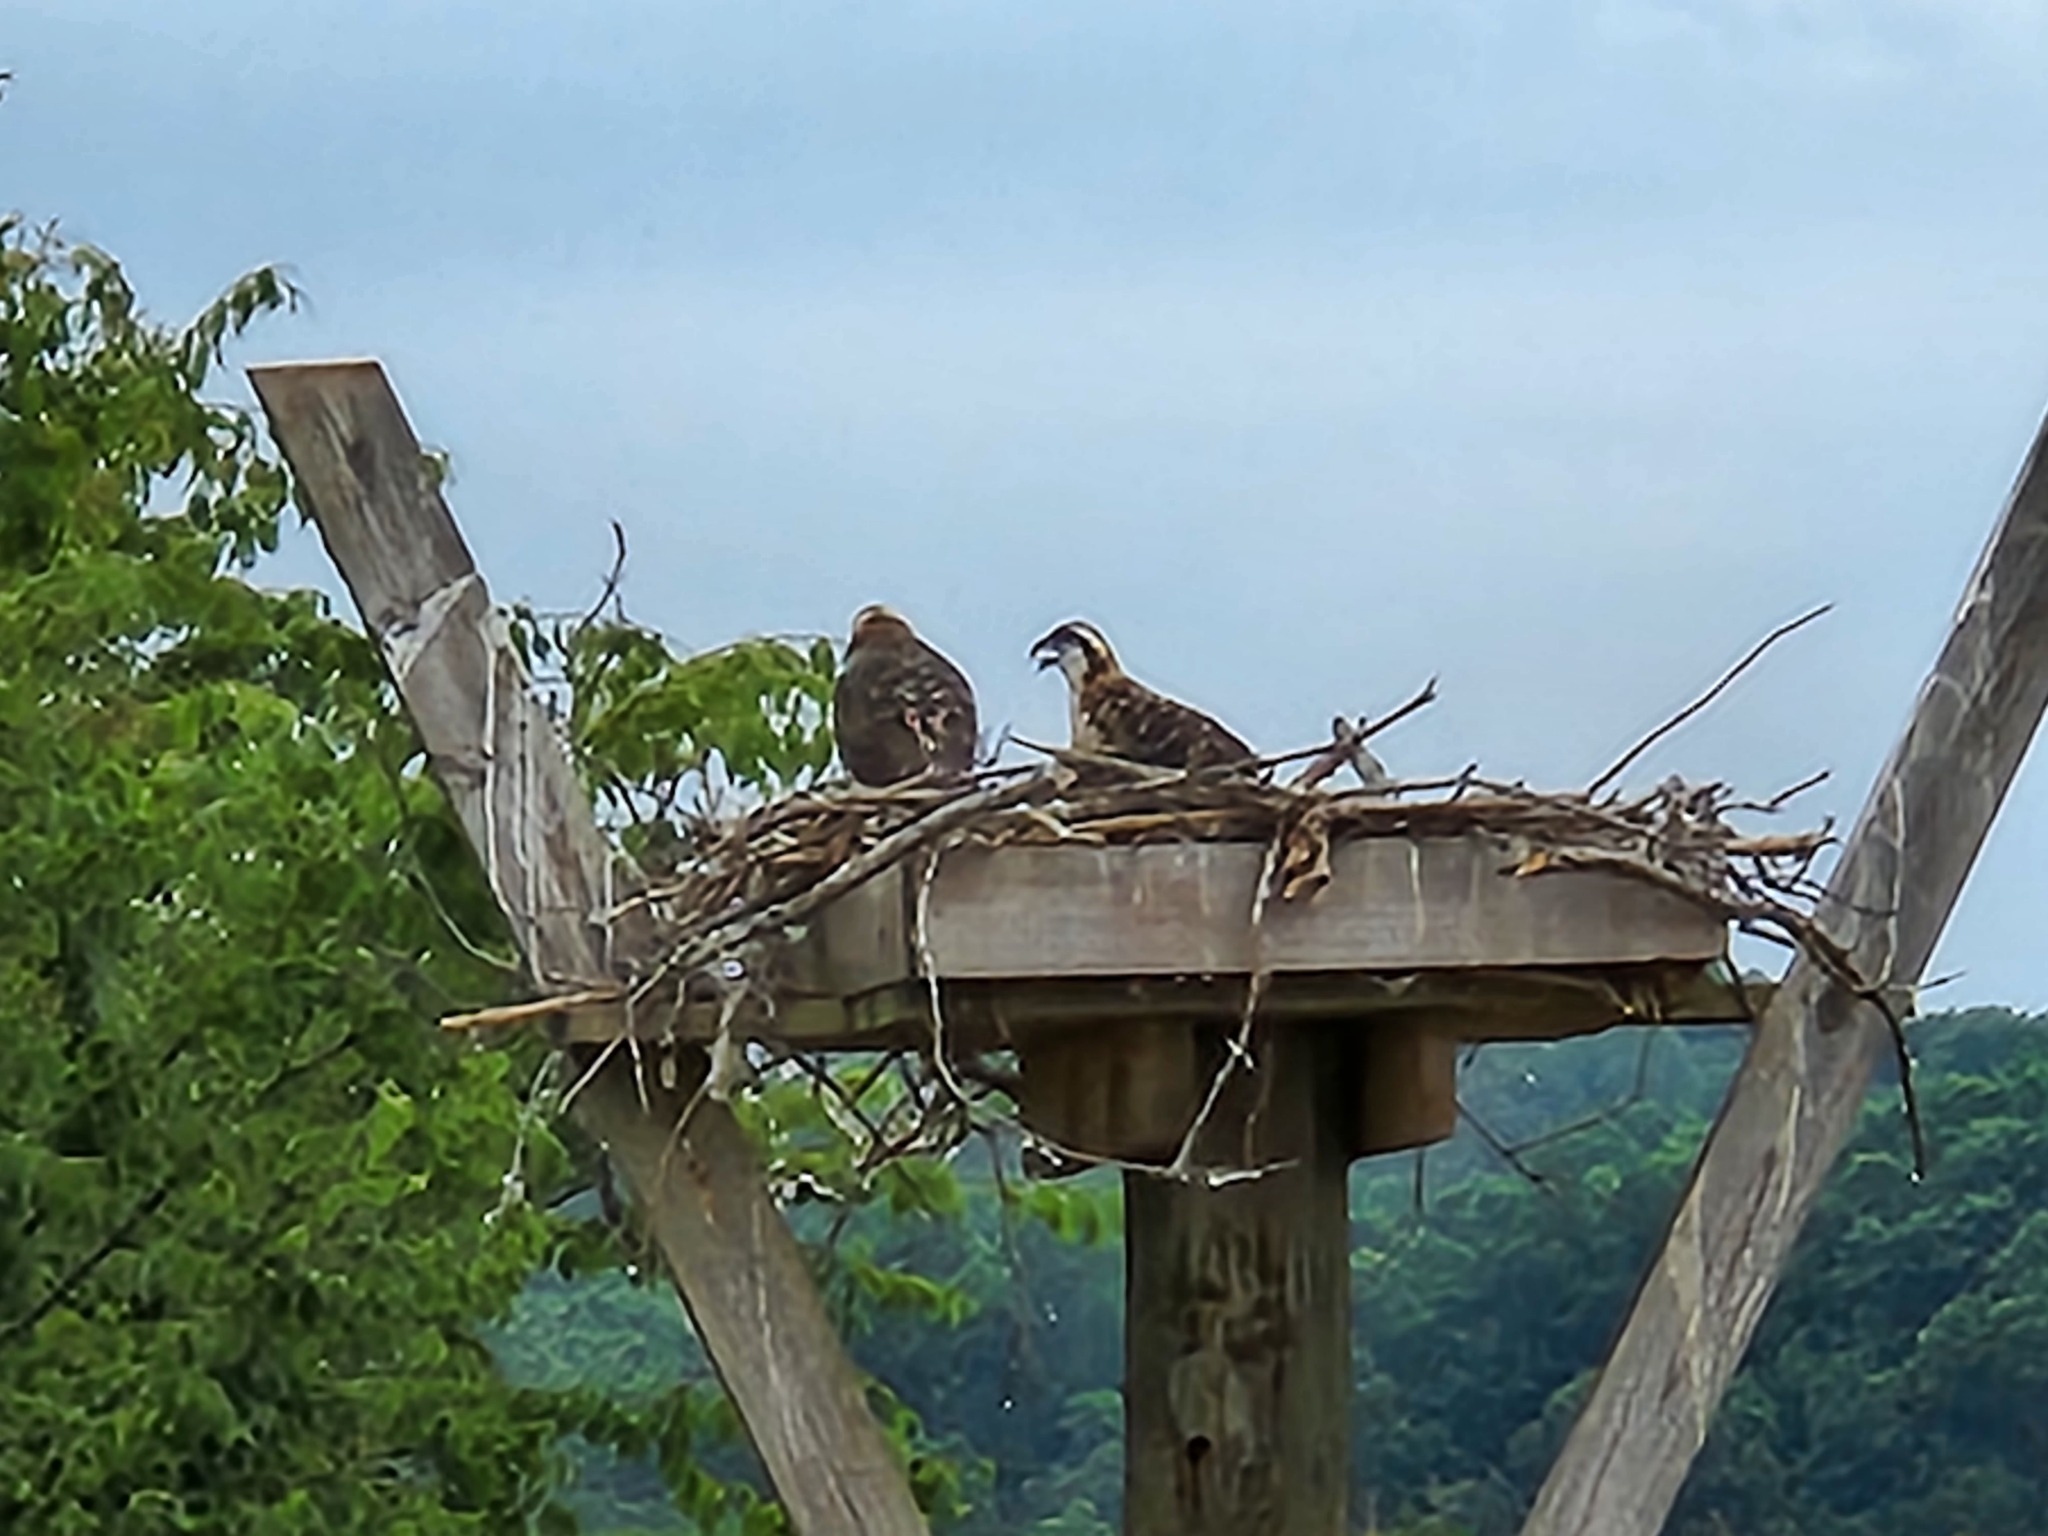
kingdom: Animalia
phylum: Chordata
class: Aves
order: Accipitriformes
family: Pandionidae
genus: Pandion
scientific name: Pandion haliaetus
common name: Osprey
